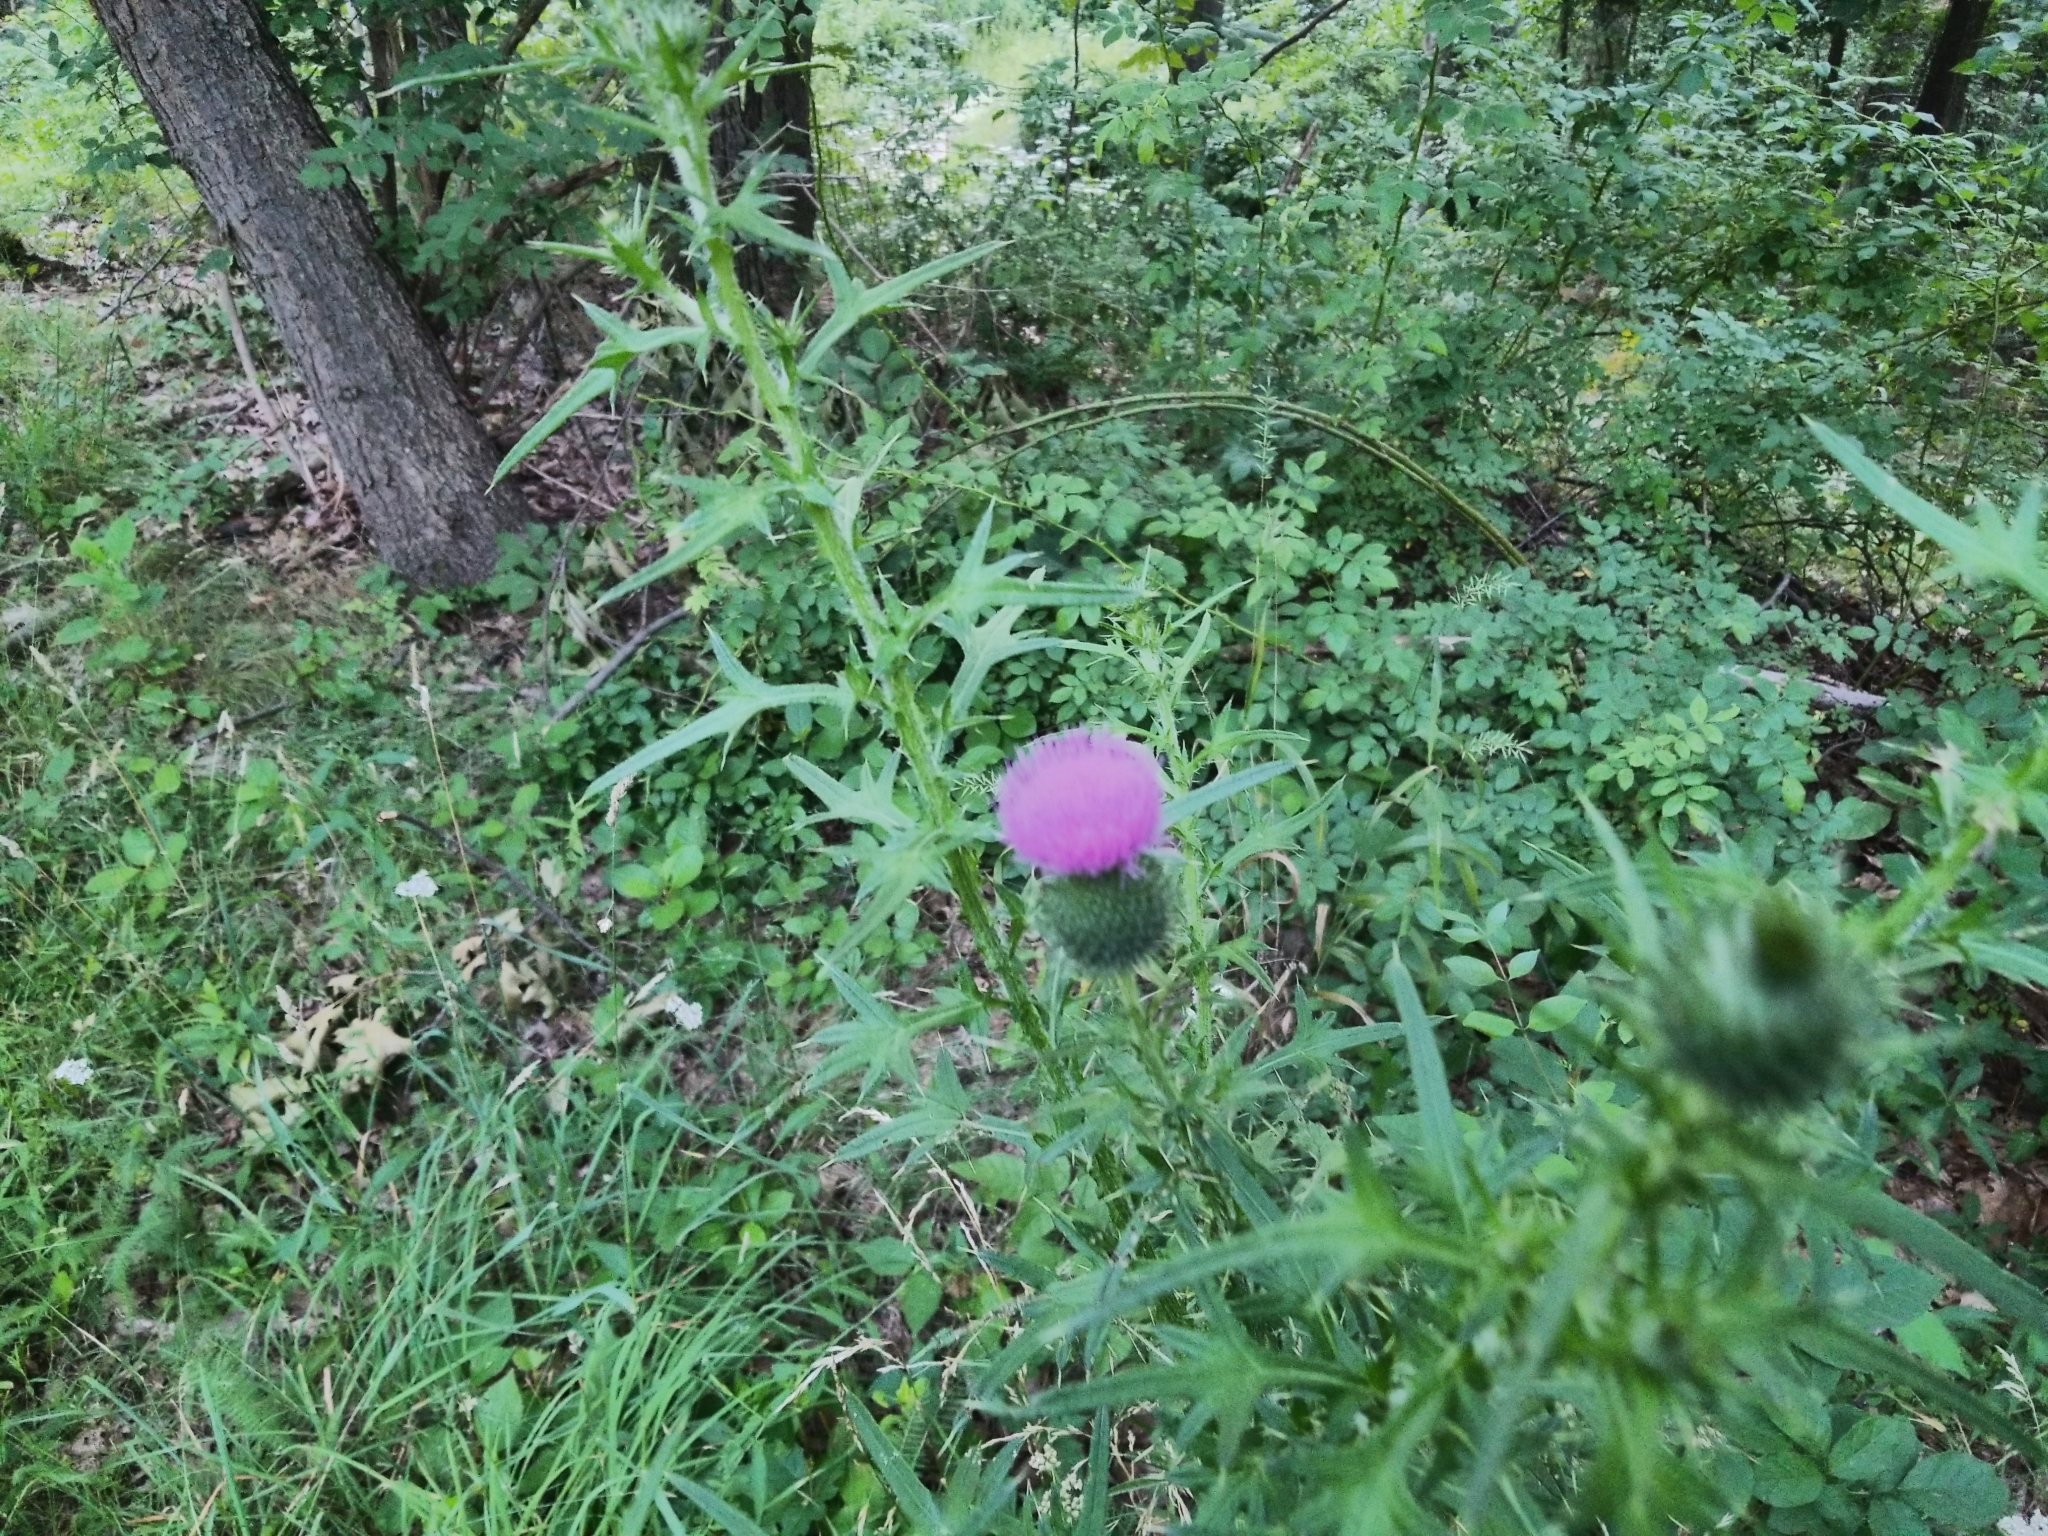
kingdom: Plantae
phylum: Tracheophyta
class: Magnoliopsida
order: Asterales
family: Asteraceae
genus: Cirsium
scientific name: Cirsium vulgare
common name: Bull thistle
